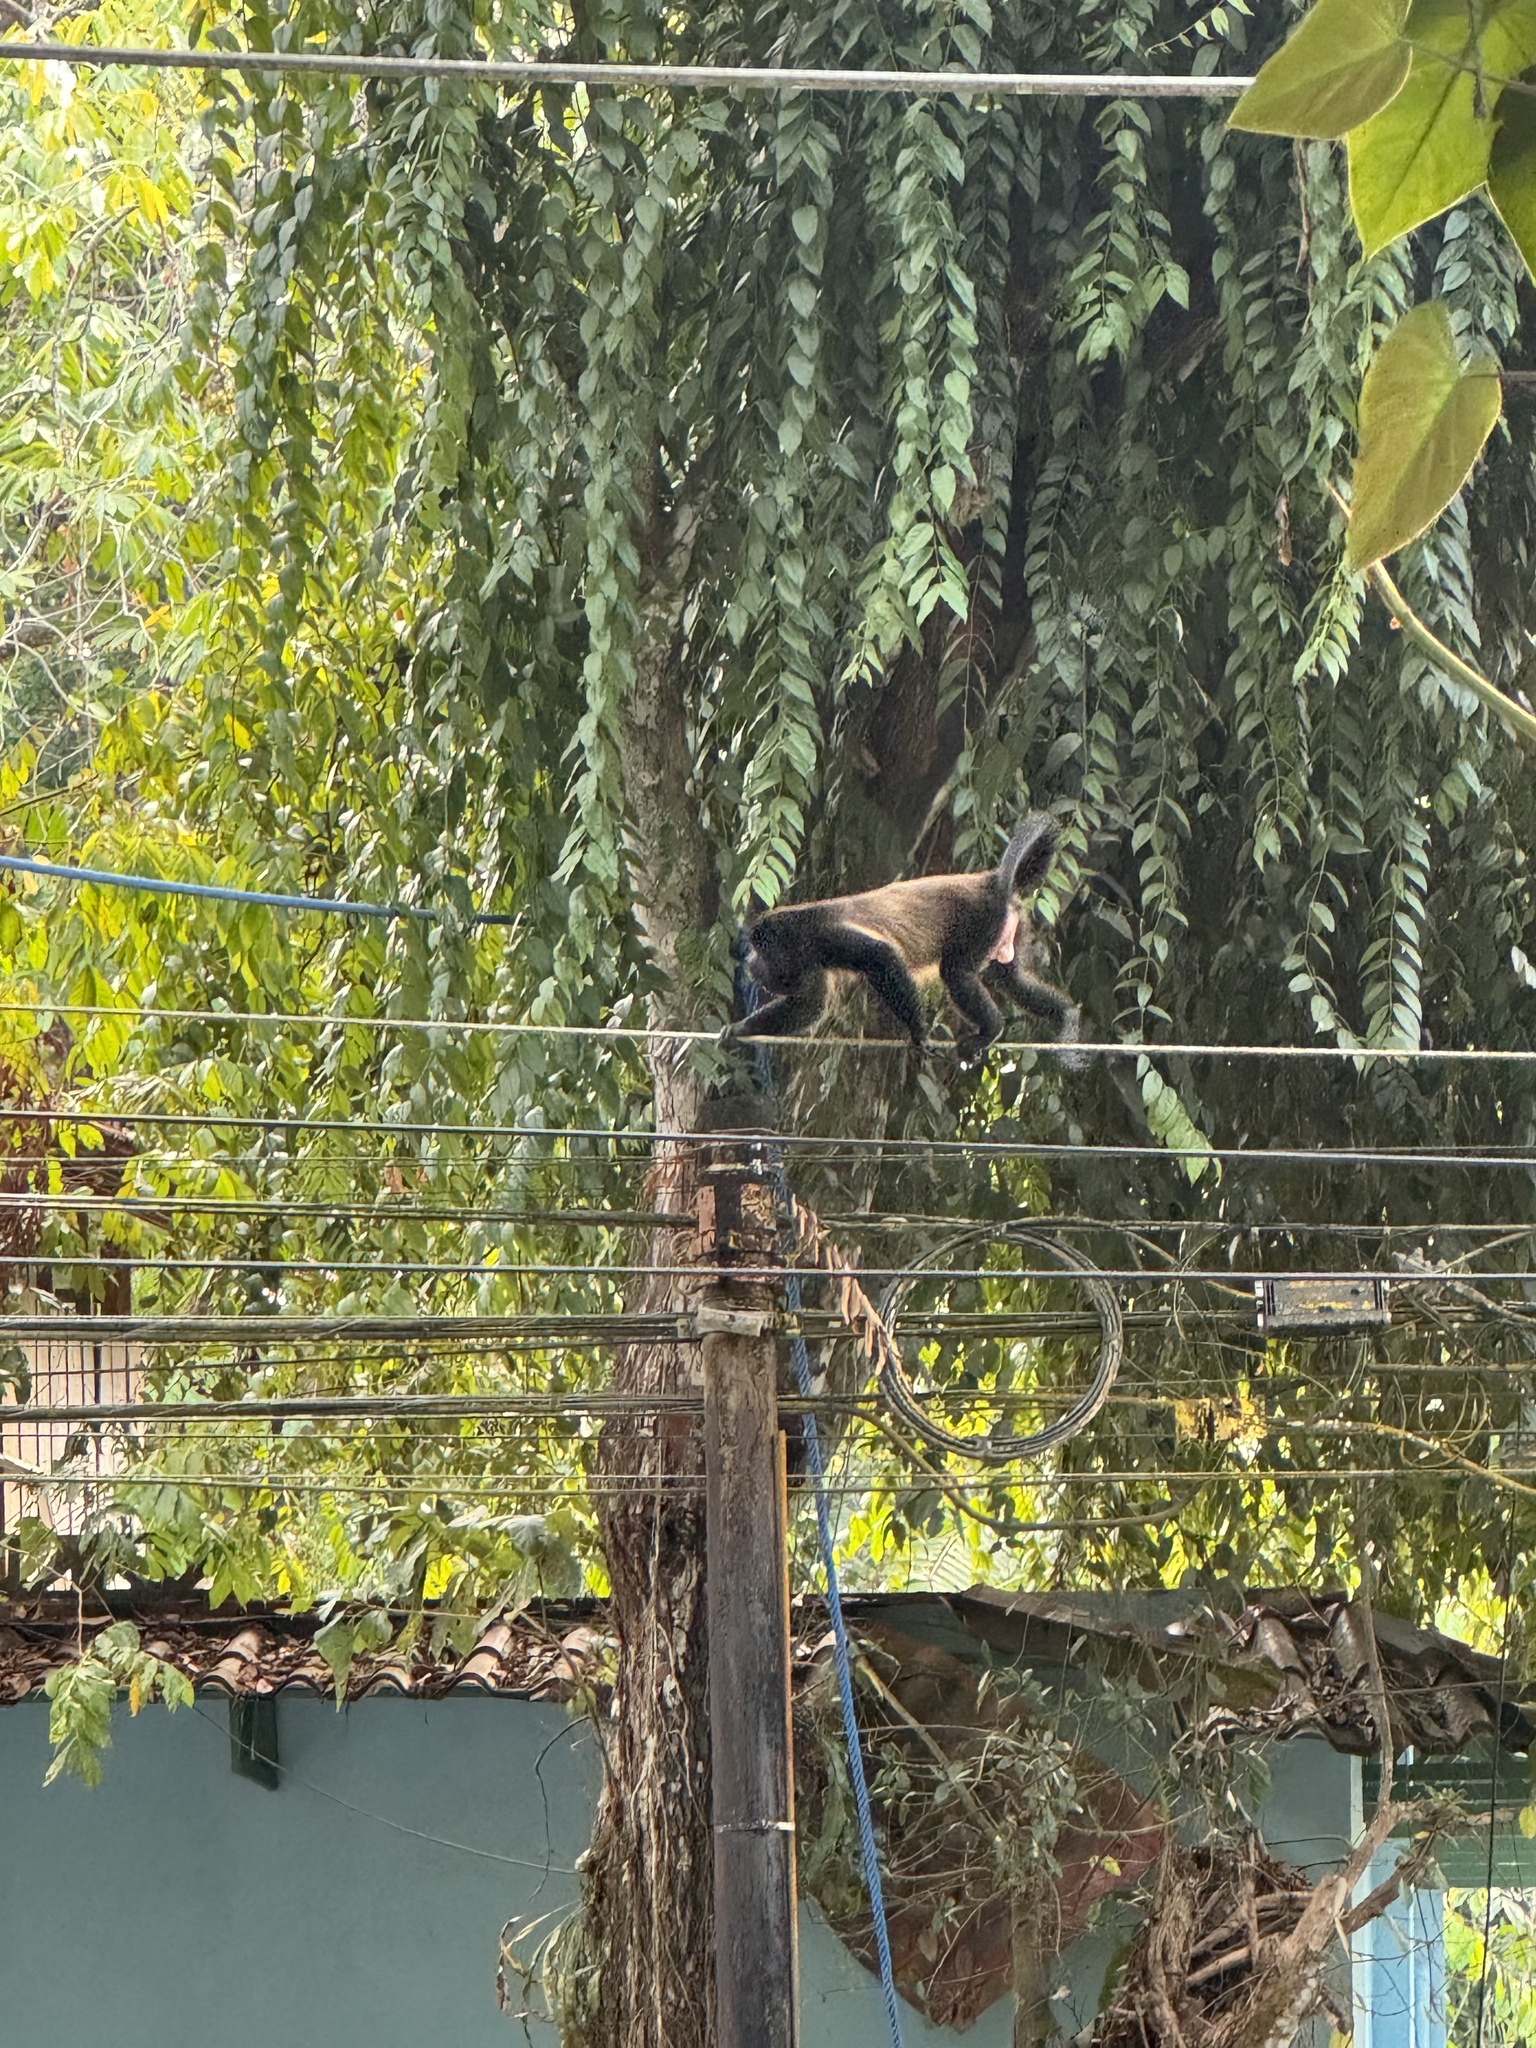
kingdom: Animalia
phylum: Chordata
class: Mammalia
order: Primates
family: Atelidae
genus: Alouatta
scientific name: Alouatta palliata
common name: Mantled howler
